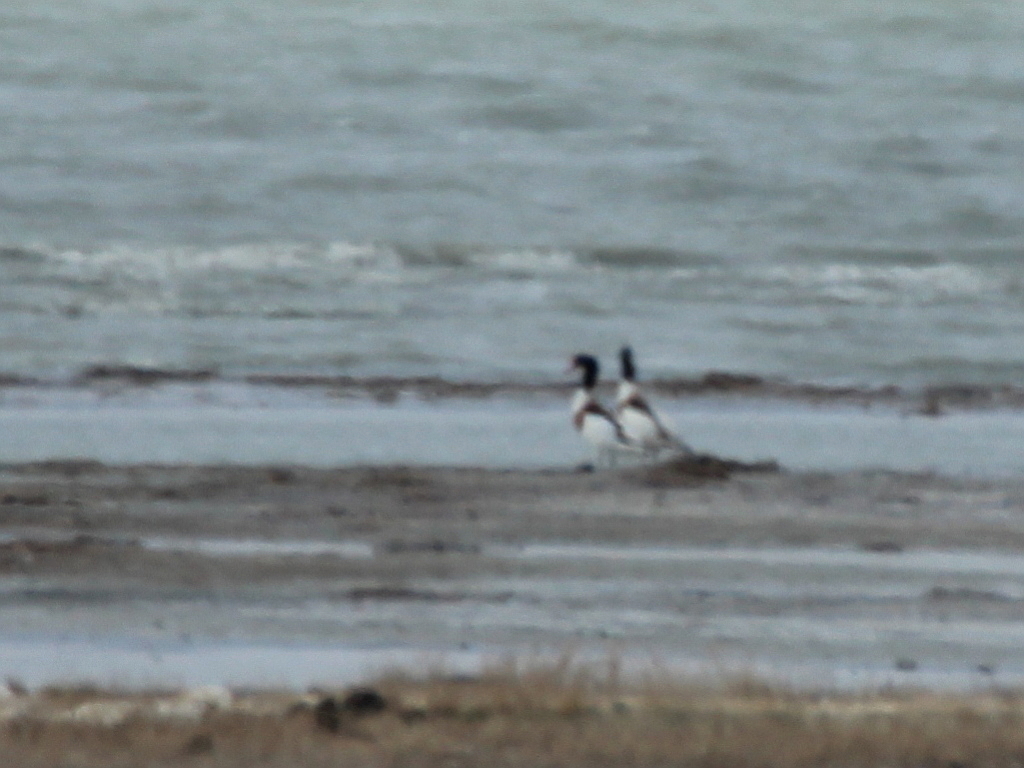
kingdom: Animalia
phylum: Chordata
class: Aves
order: Anseriformes
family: Anatidae
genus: Tadorna
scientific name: Tadorna tadorna
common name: Common shelduck
